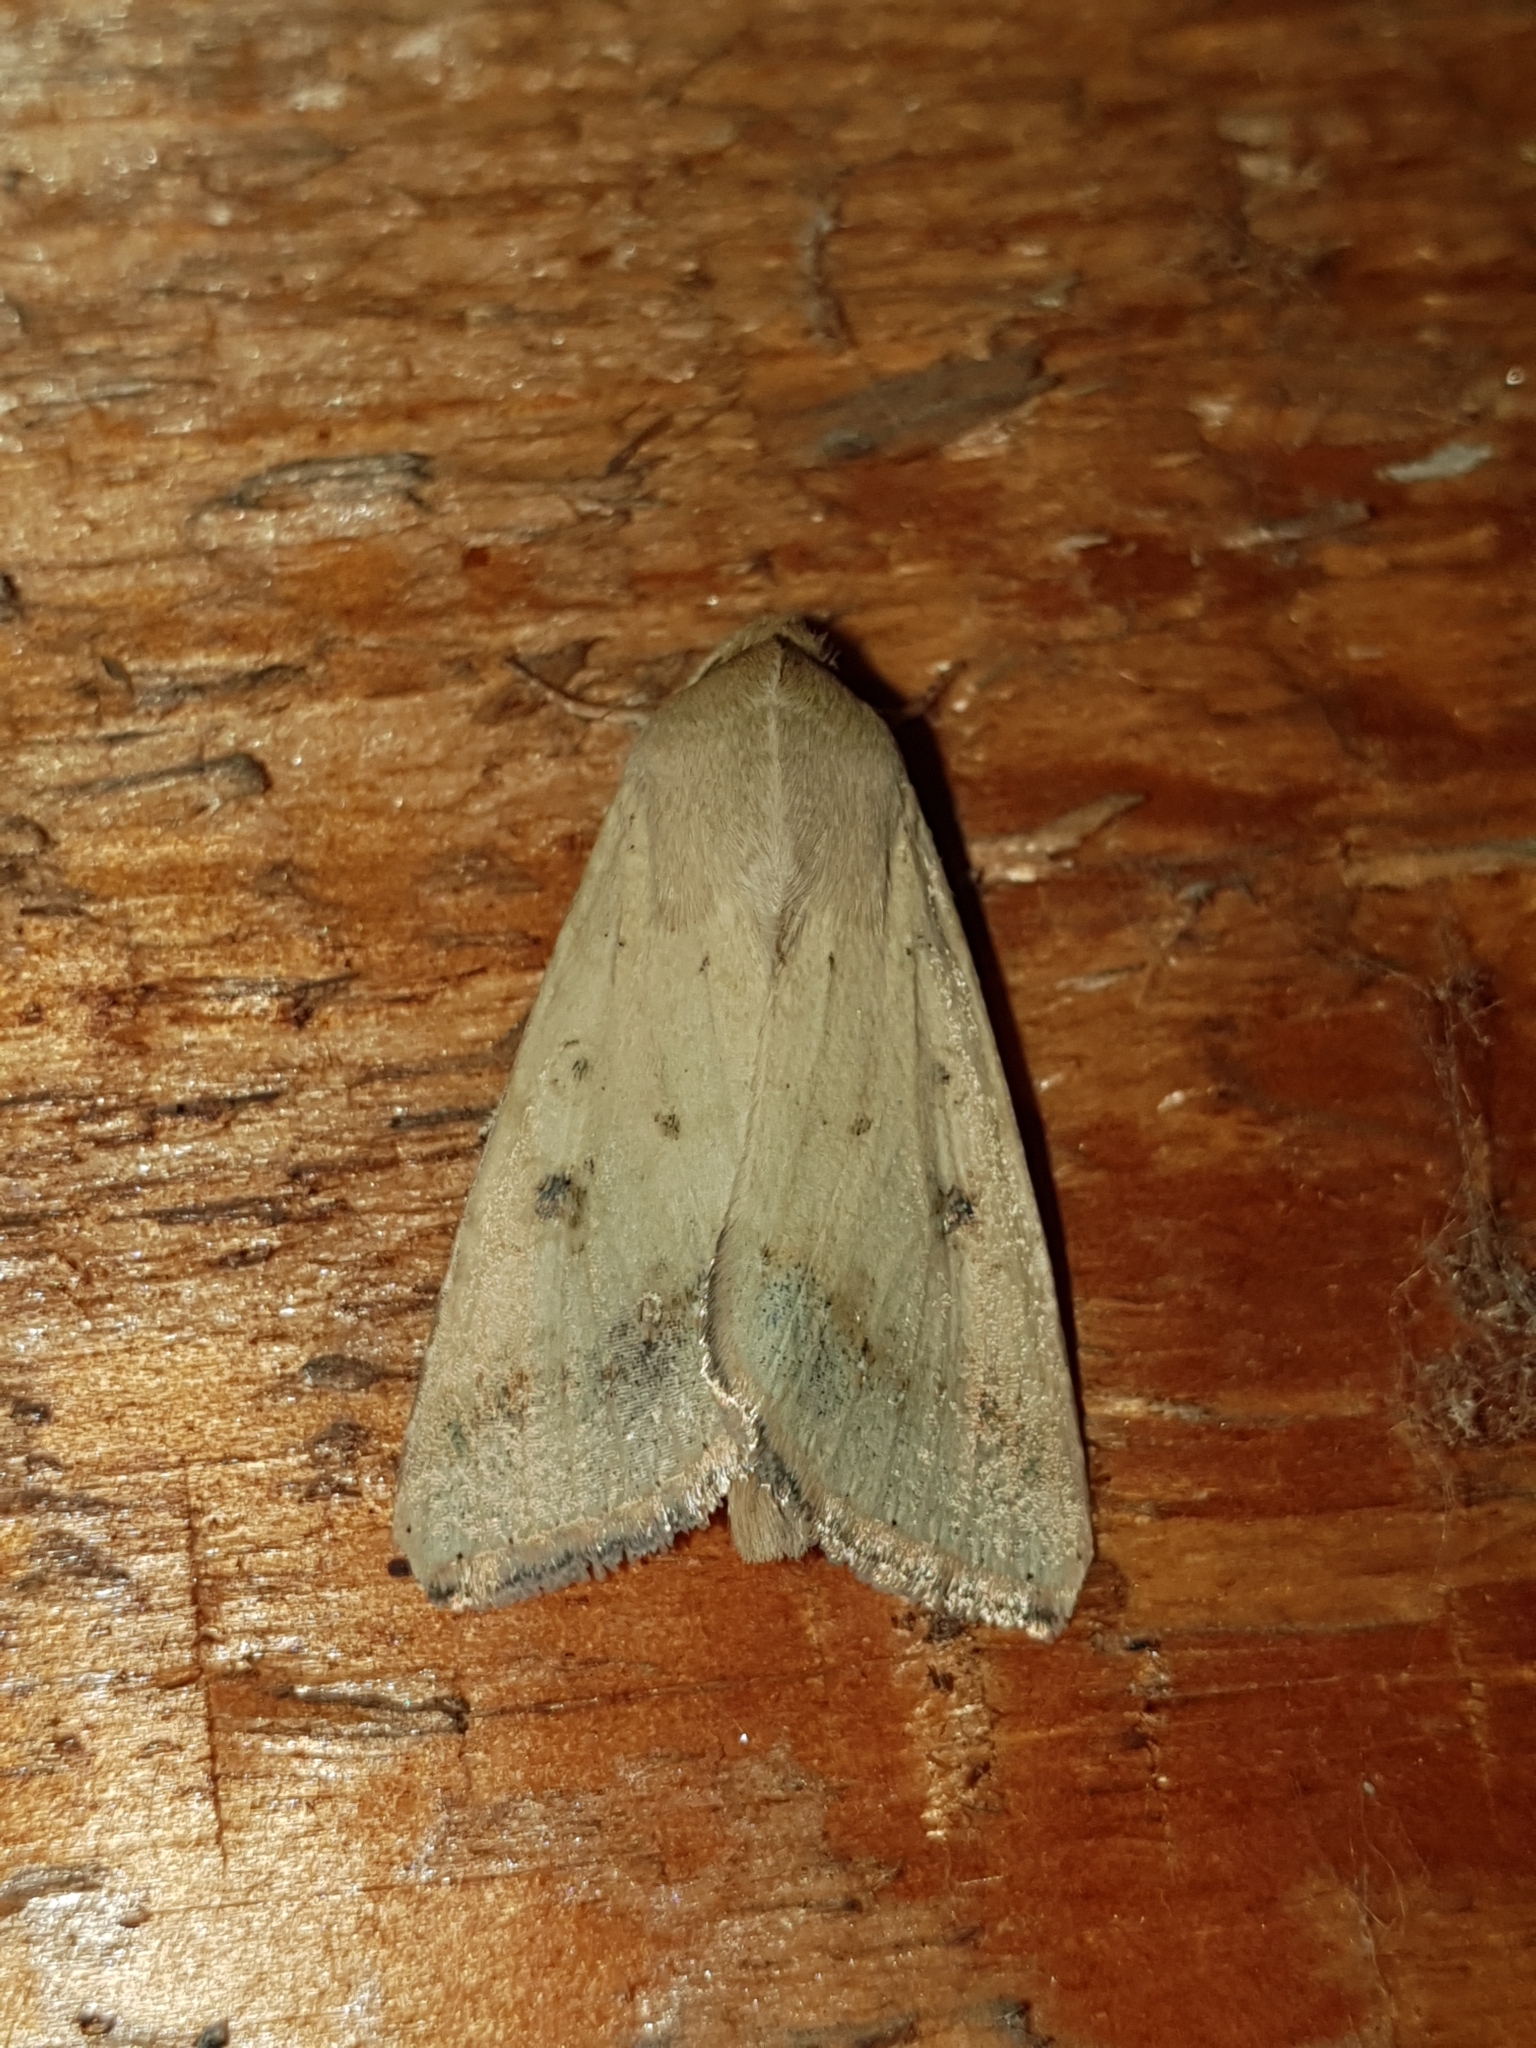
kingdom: Animalia
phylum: Arthropoda
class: Insecta
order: Lepidoptera
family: Noctuidae
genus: Helicoverpa
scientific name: Helicoverpa armigera
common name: Cotton bollworm
